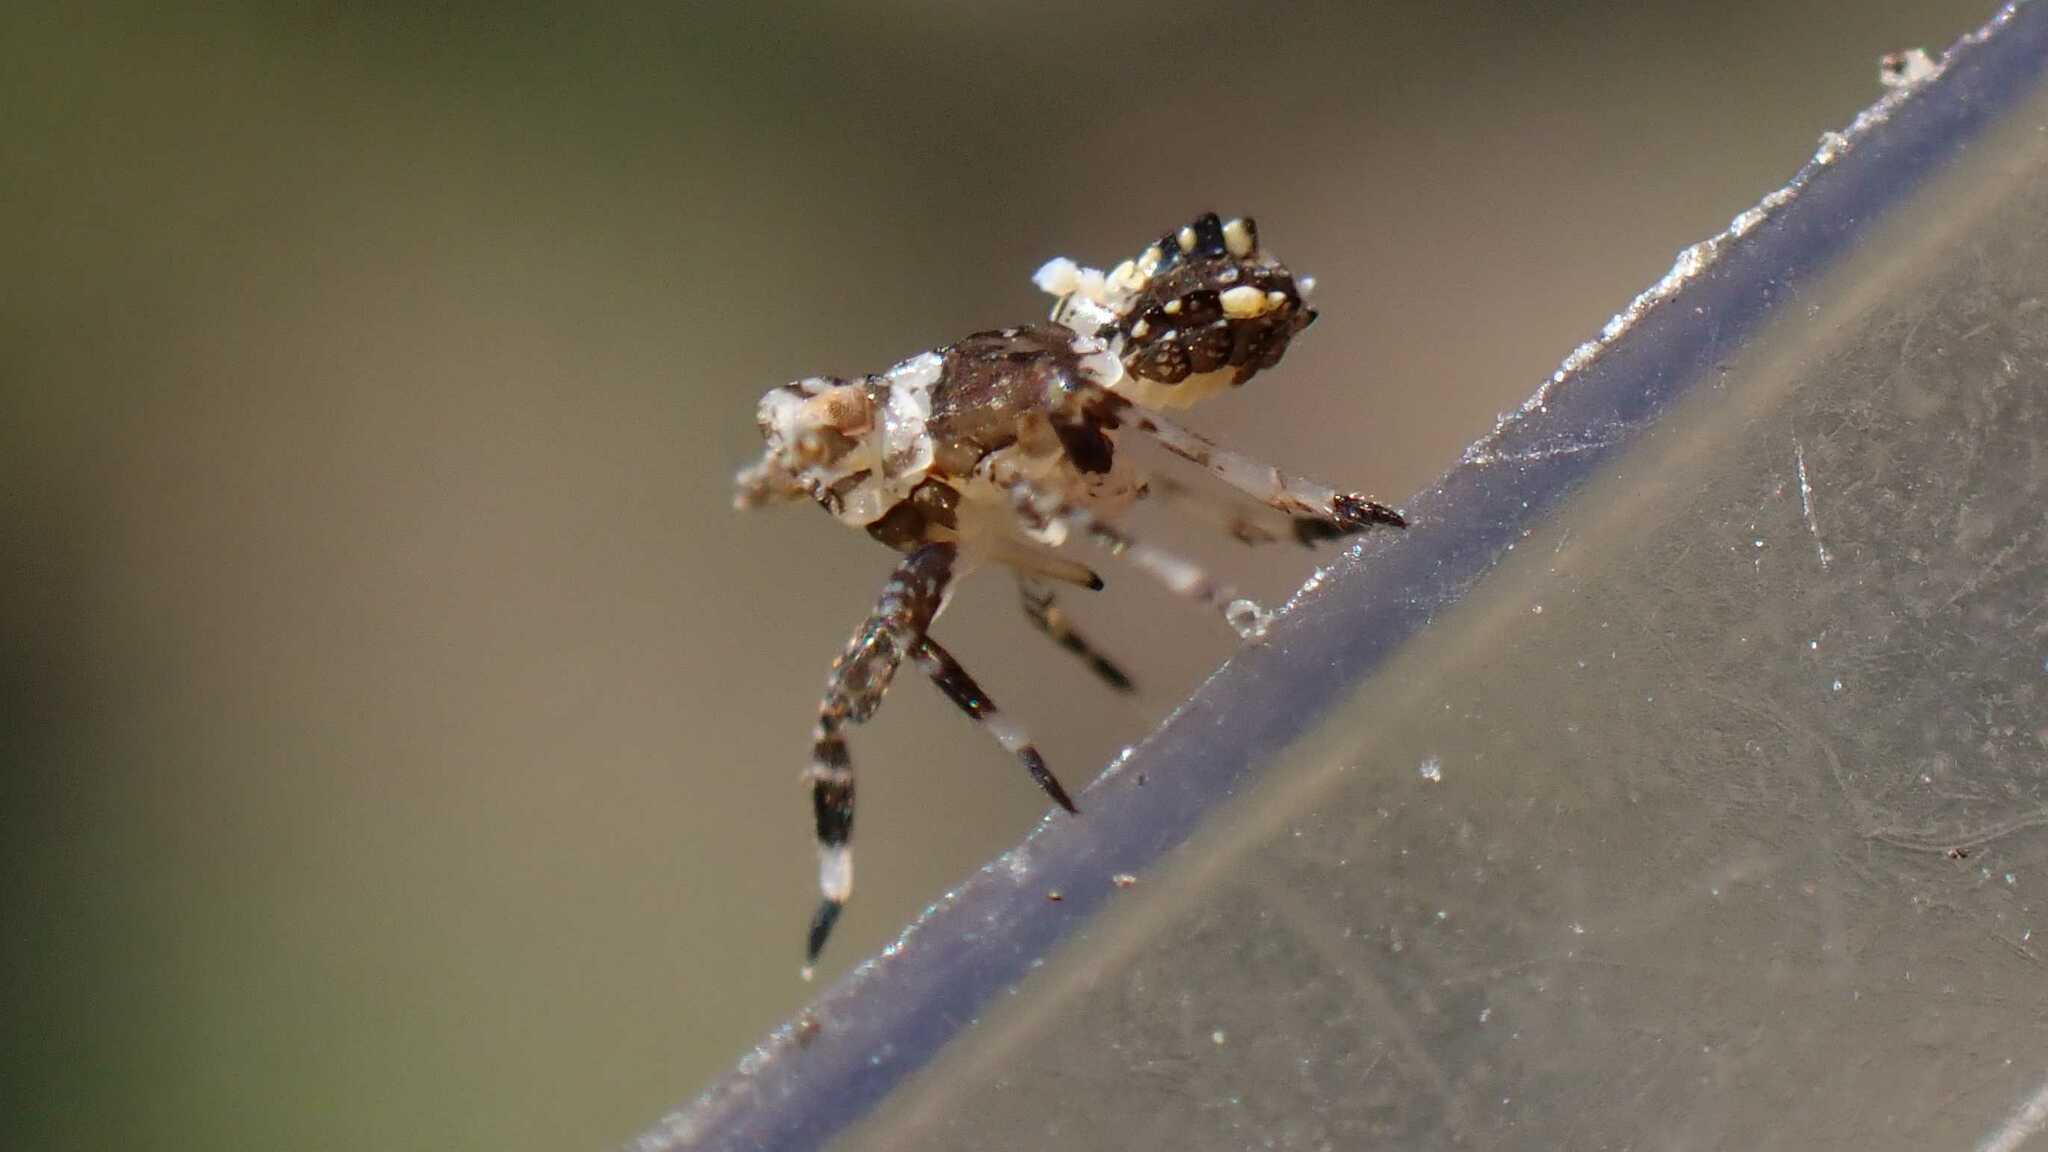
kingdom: Animalia
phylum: Arthropoda
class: Insecta
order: Hemiptera
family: Delphacidae
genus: Asiraca
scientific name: Asiraca clavicornis
